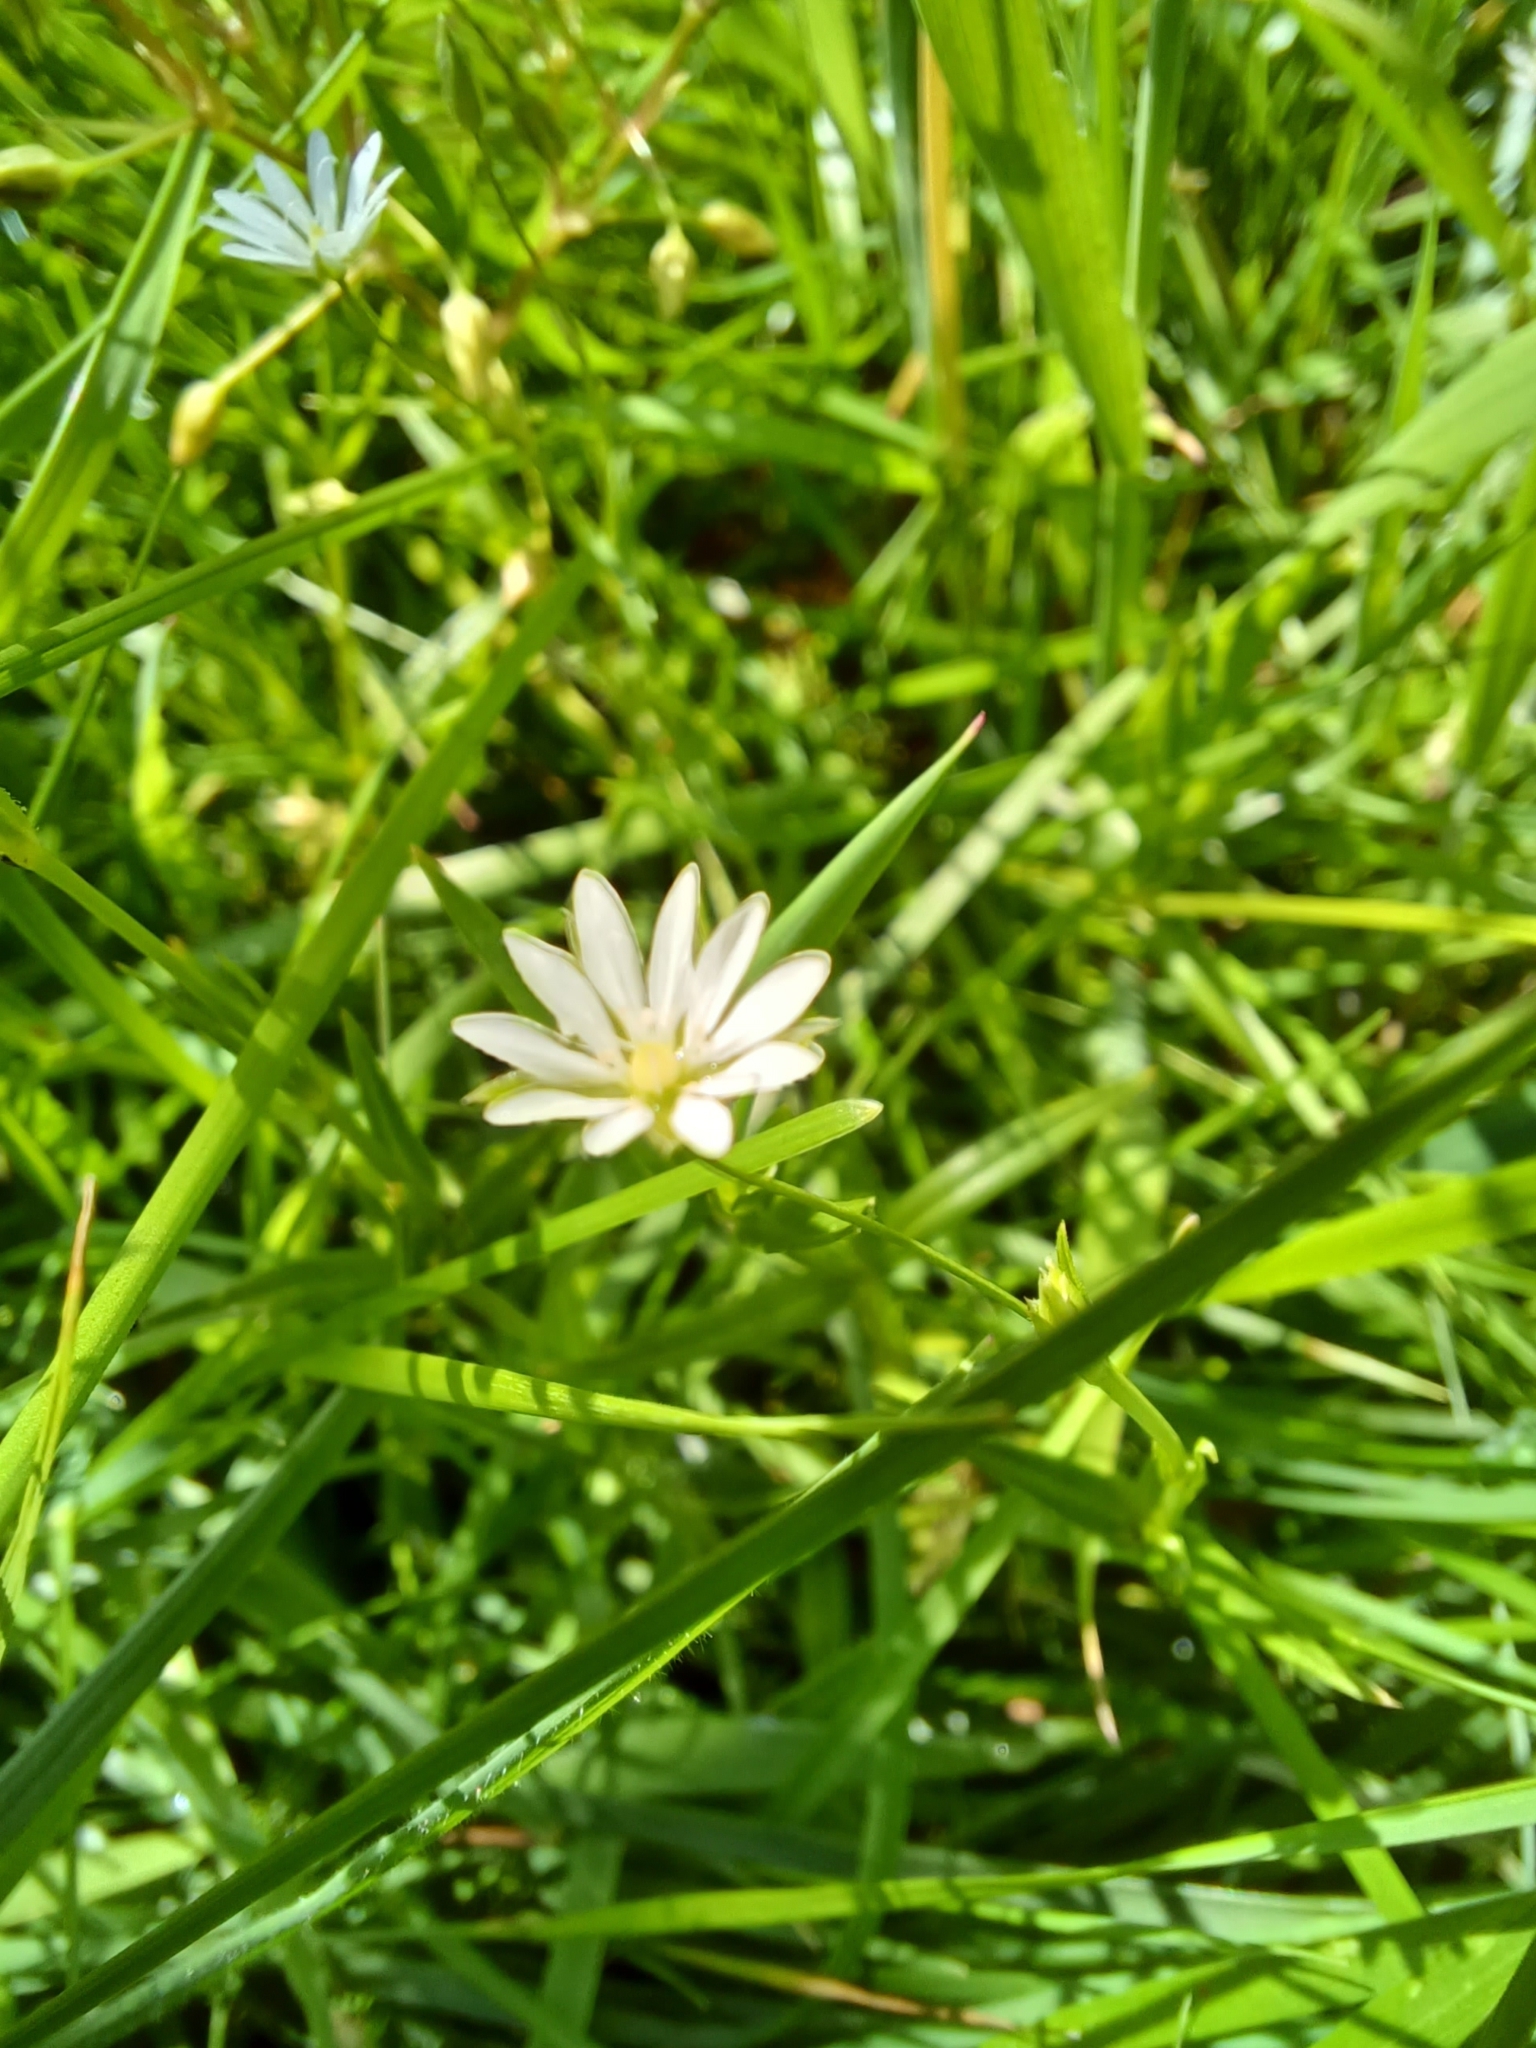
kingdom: Plantae
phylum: Tracheophyta
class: Magnoliopsida
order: Caryophyllales
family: Caryophyllaceae
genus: Stellaria
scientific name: Stellaria graminea
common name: Grass-like starwort
